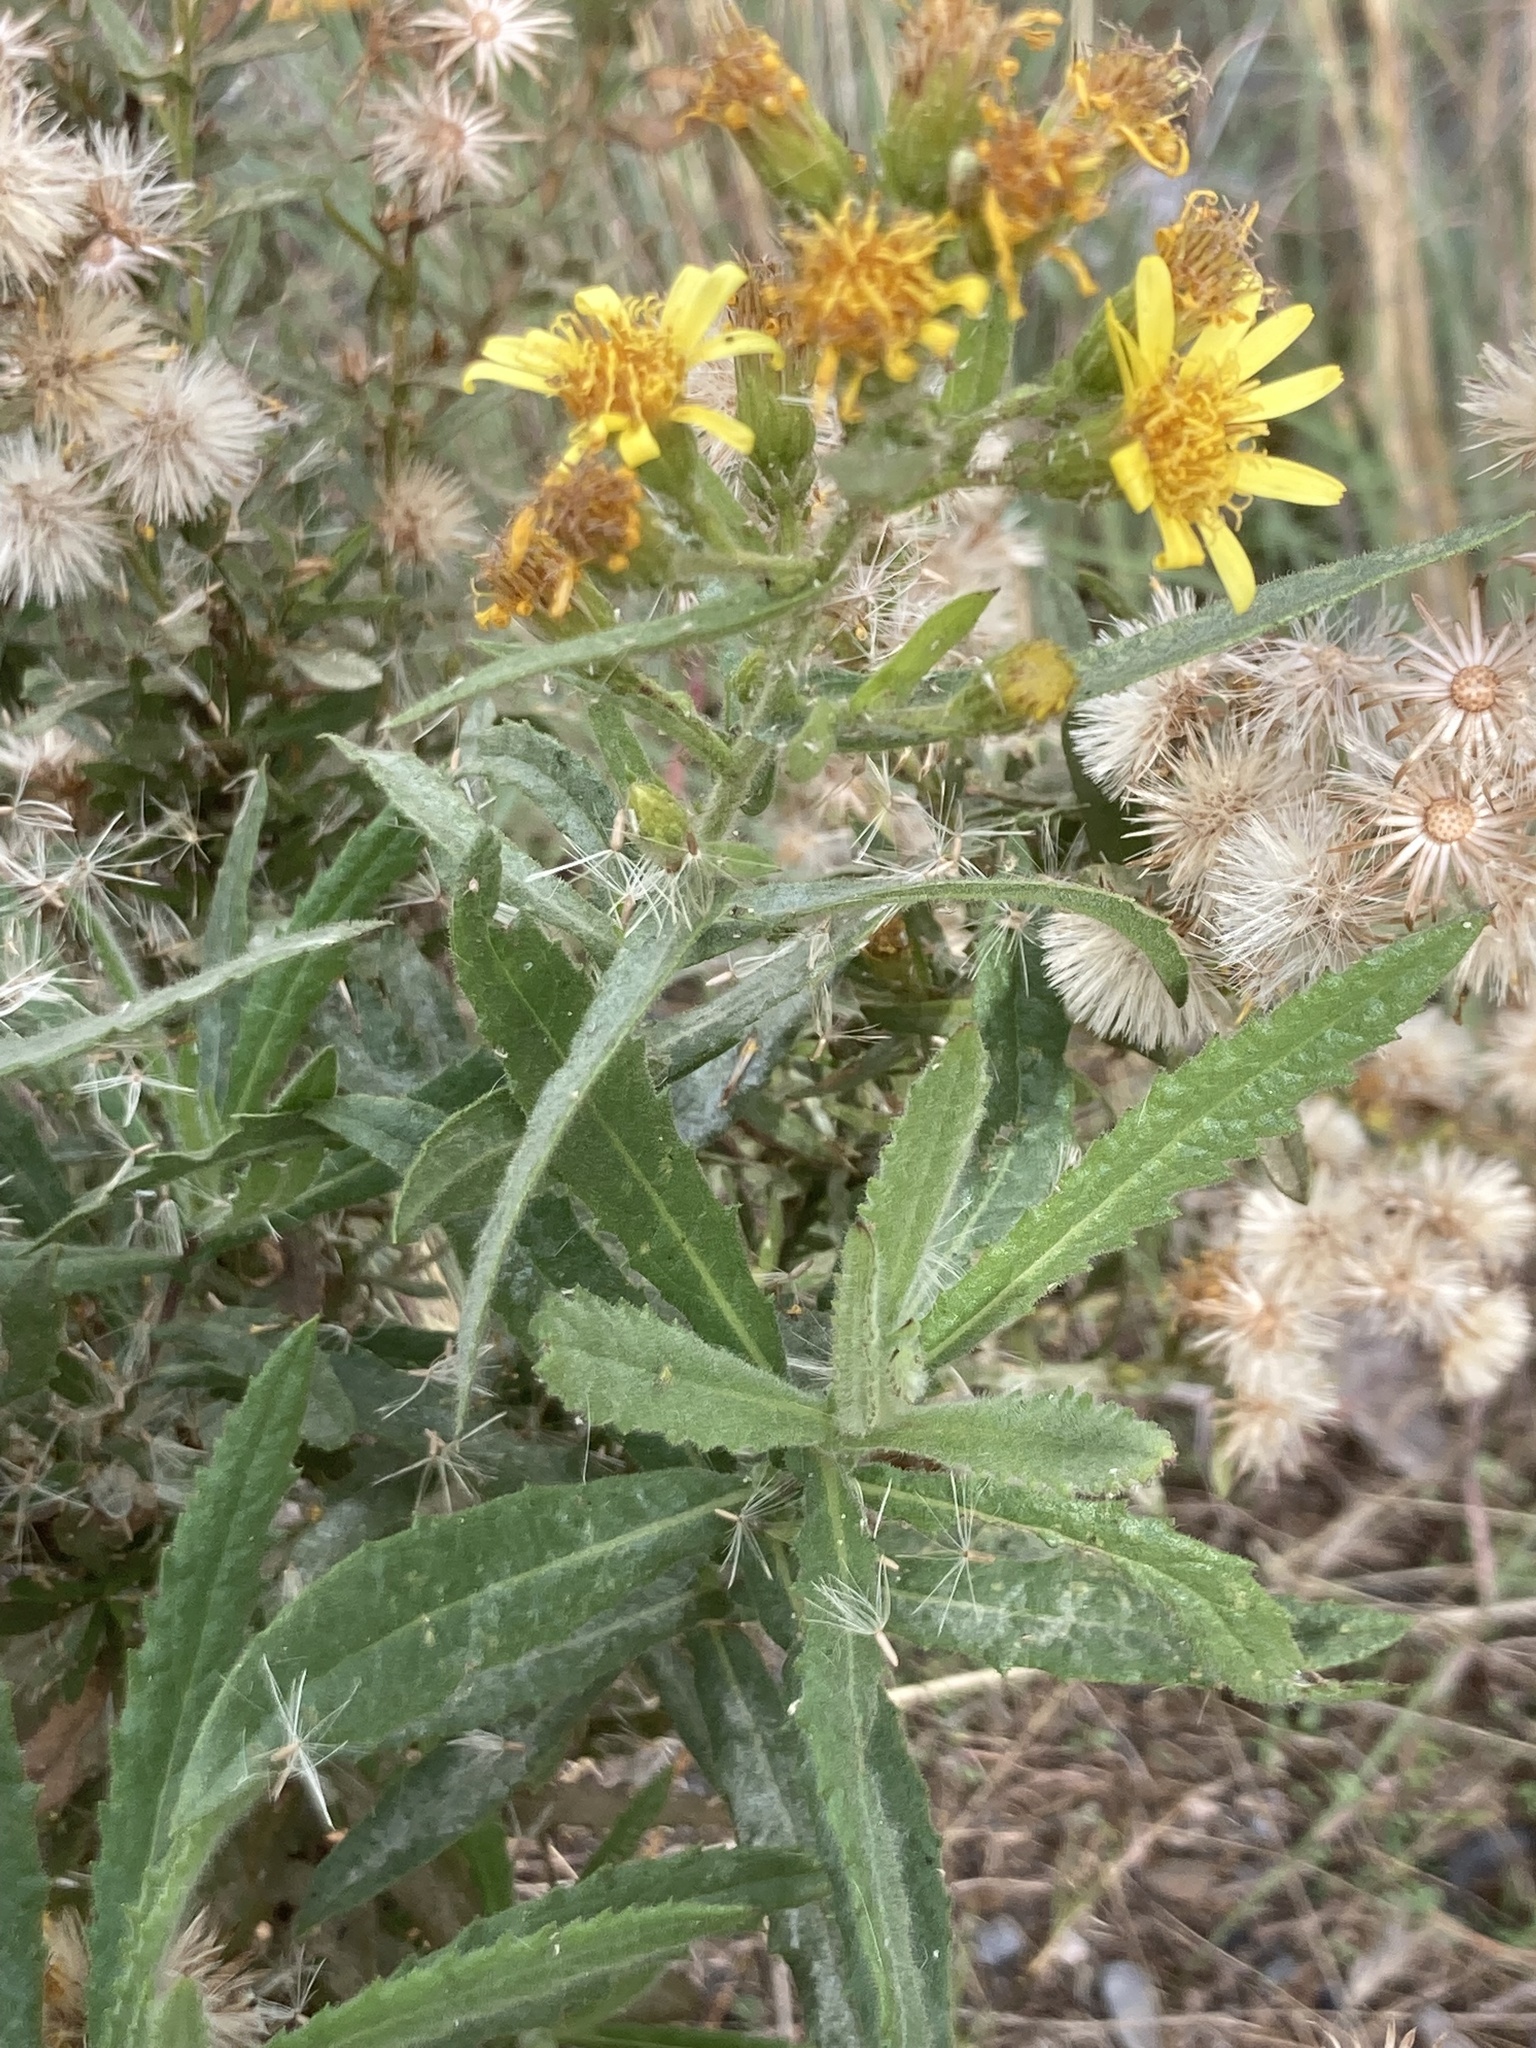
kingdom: Plantae
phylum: Tracheophyta
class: Magnoliopsida
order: Asterales
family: Asteraceae
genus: Dittrichia
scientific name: Dittrichia viscosa
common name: Woody fleabane
